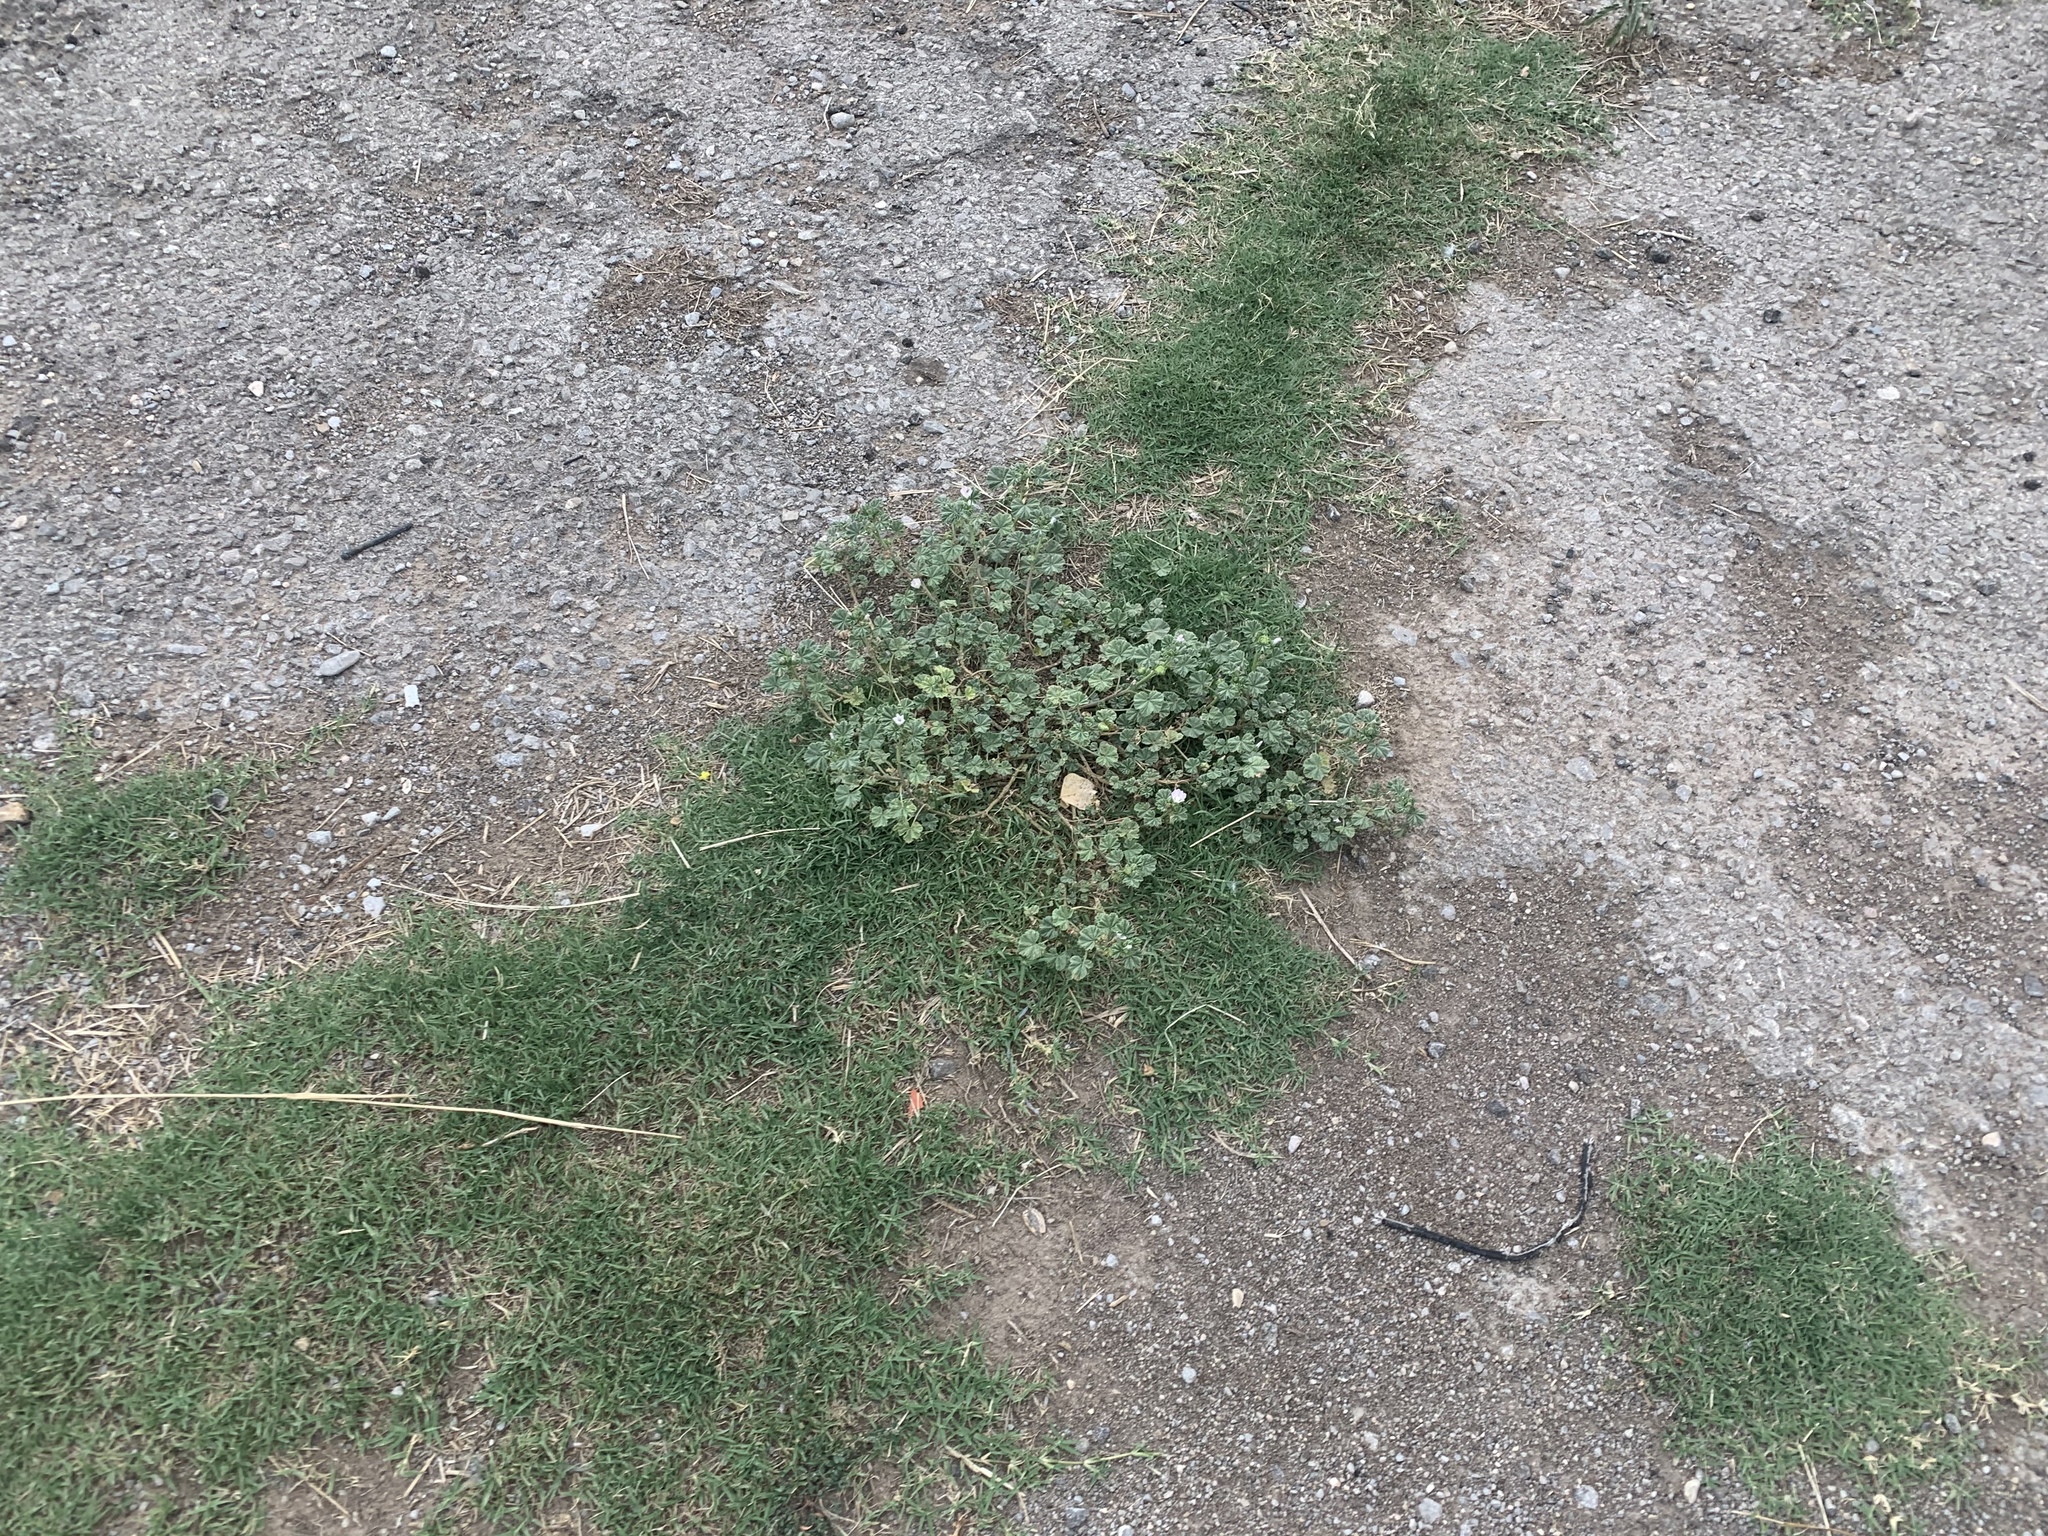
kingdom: Plantae
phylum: Tracheophyta
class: Magnoliopsida
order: Malvales
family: Malvaceae
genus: Malva
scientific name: Malva neglecta
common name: Common mallow
